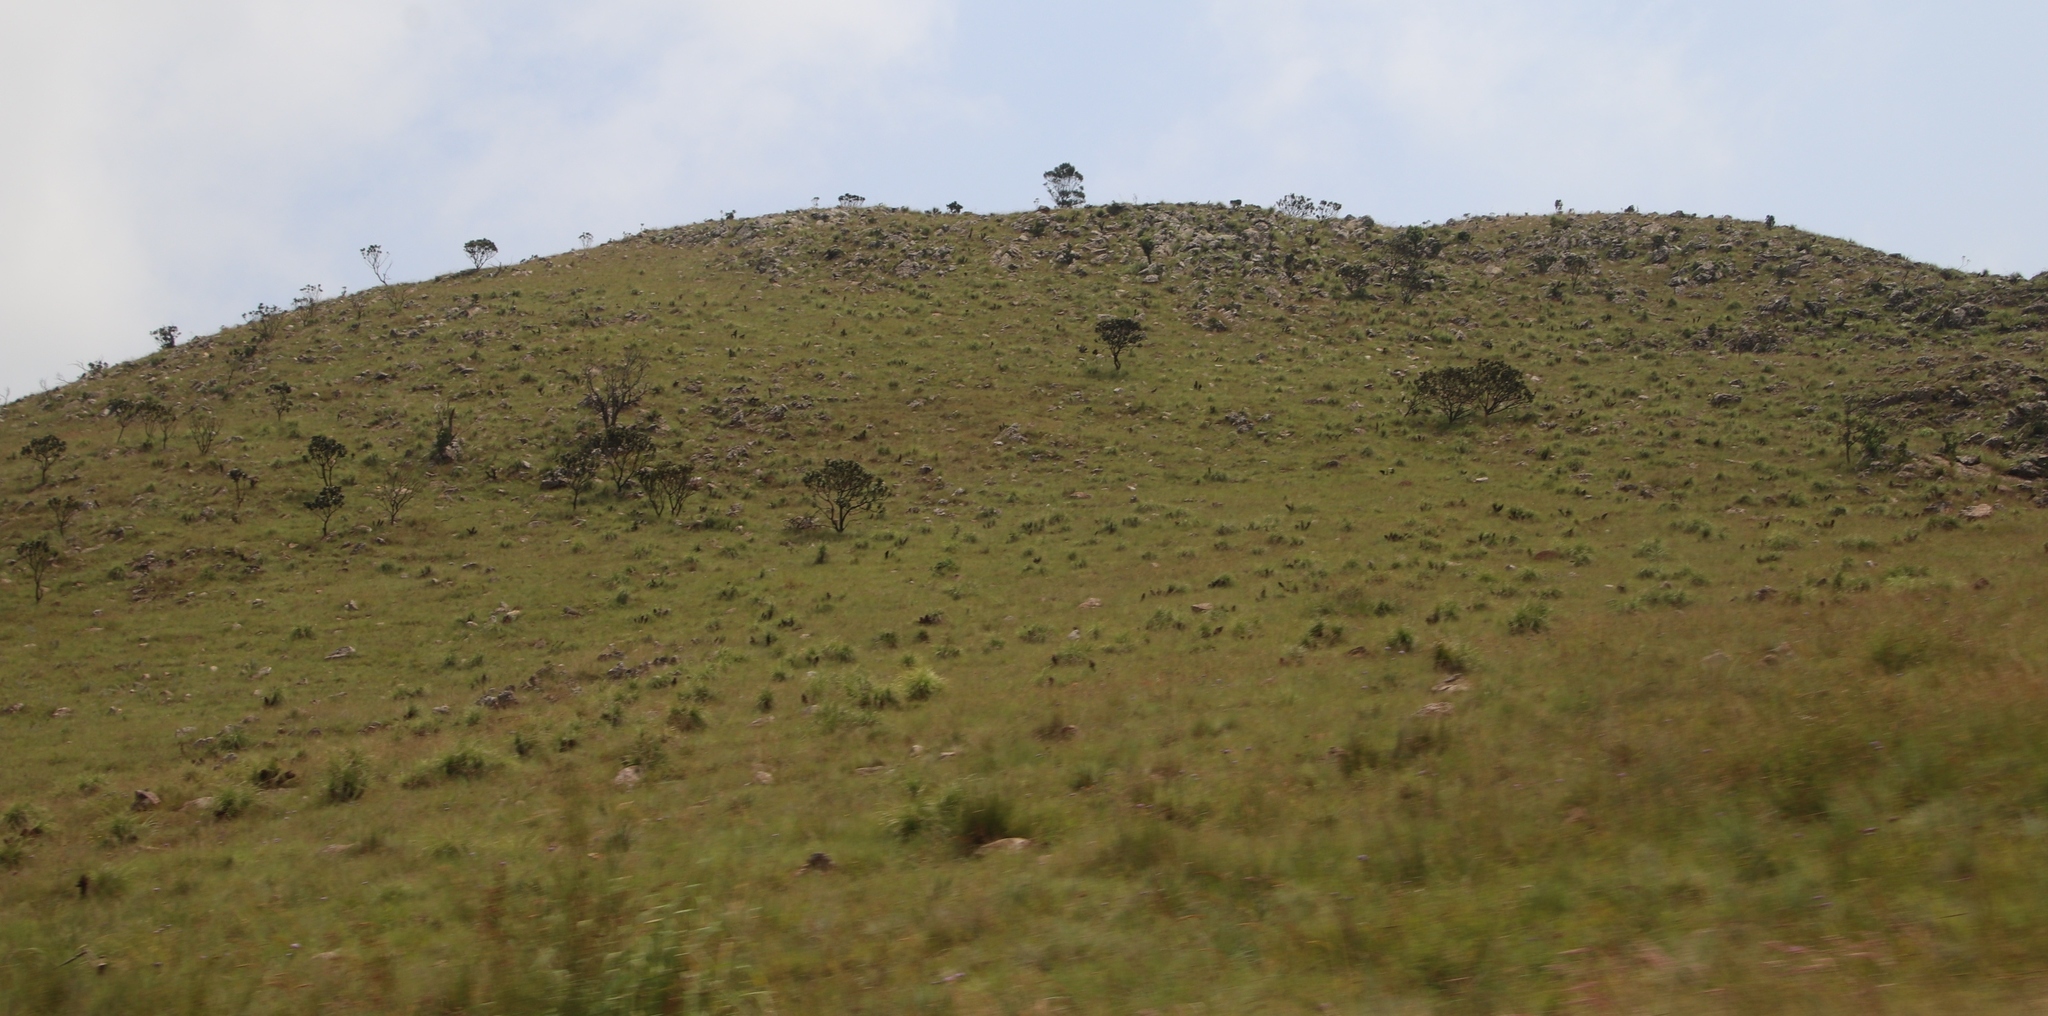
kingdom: Plantae
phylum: Tracheophyta
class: Magnoliopsida
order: Proteales
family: Proteaceae
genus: Protea
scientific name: Protea roupelliae
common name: Silver sugarbush
